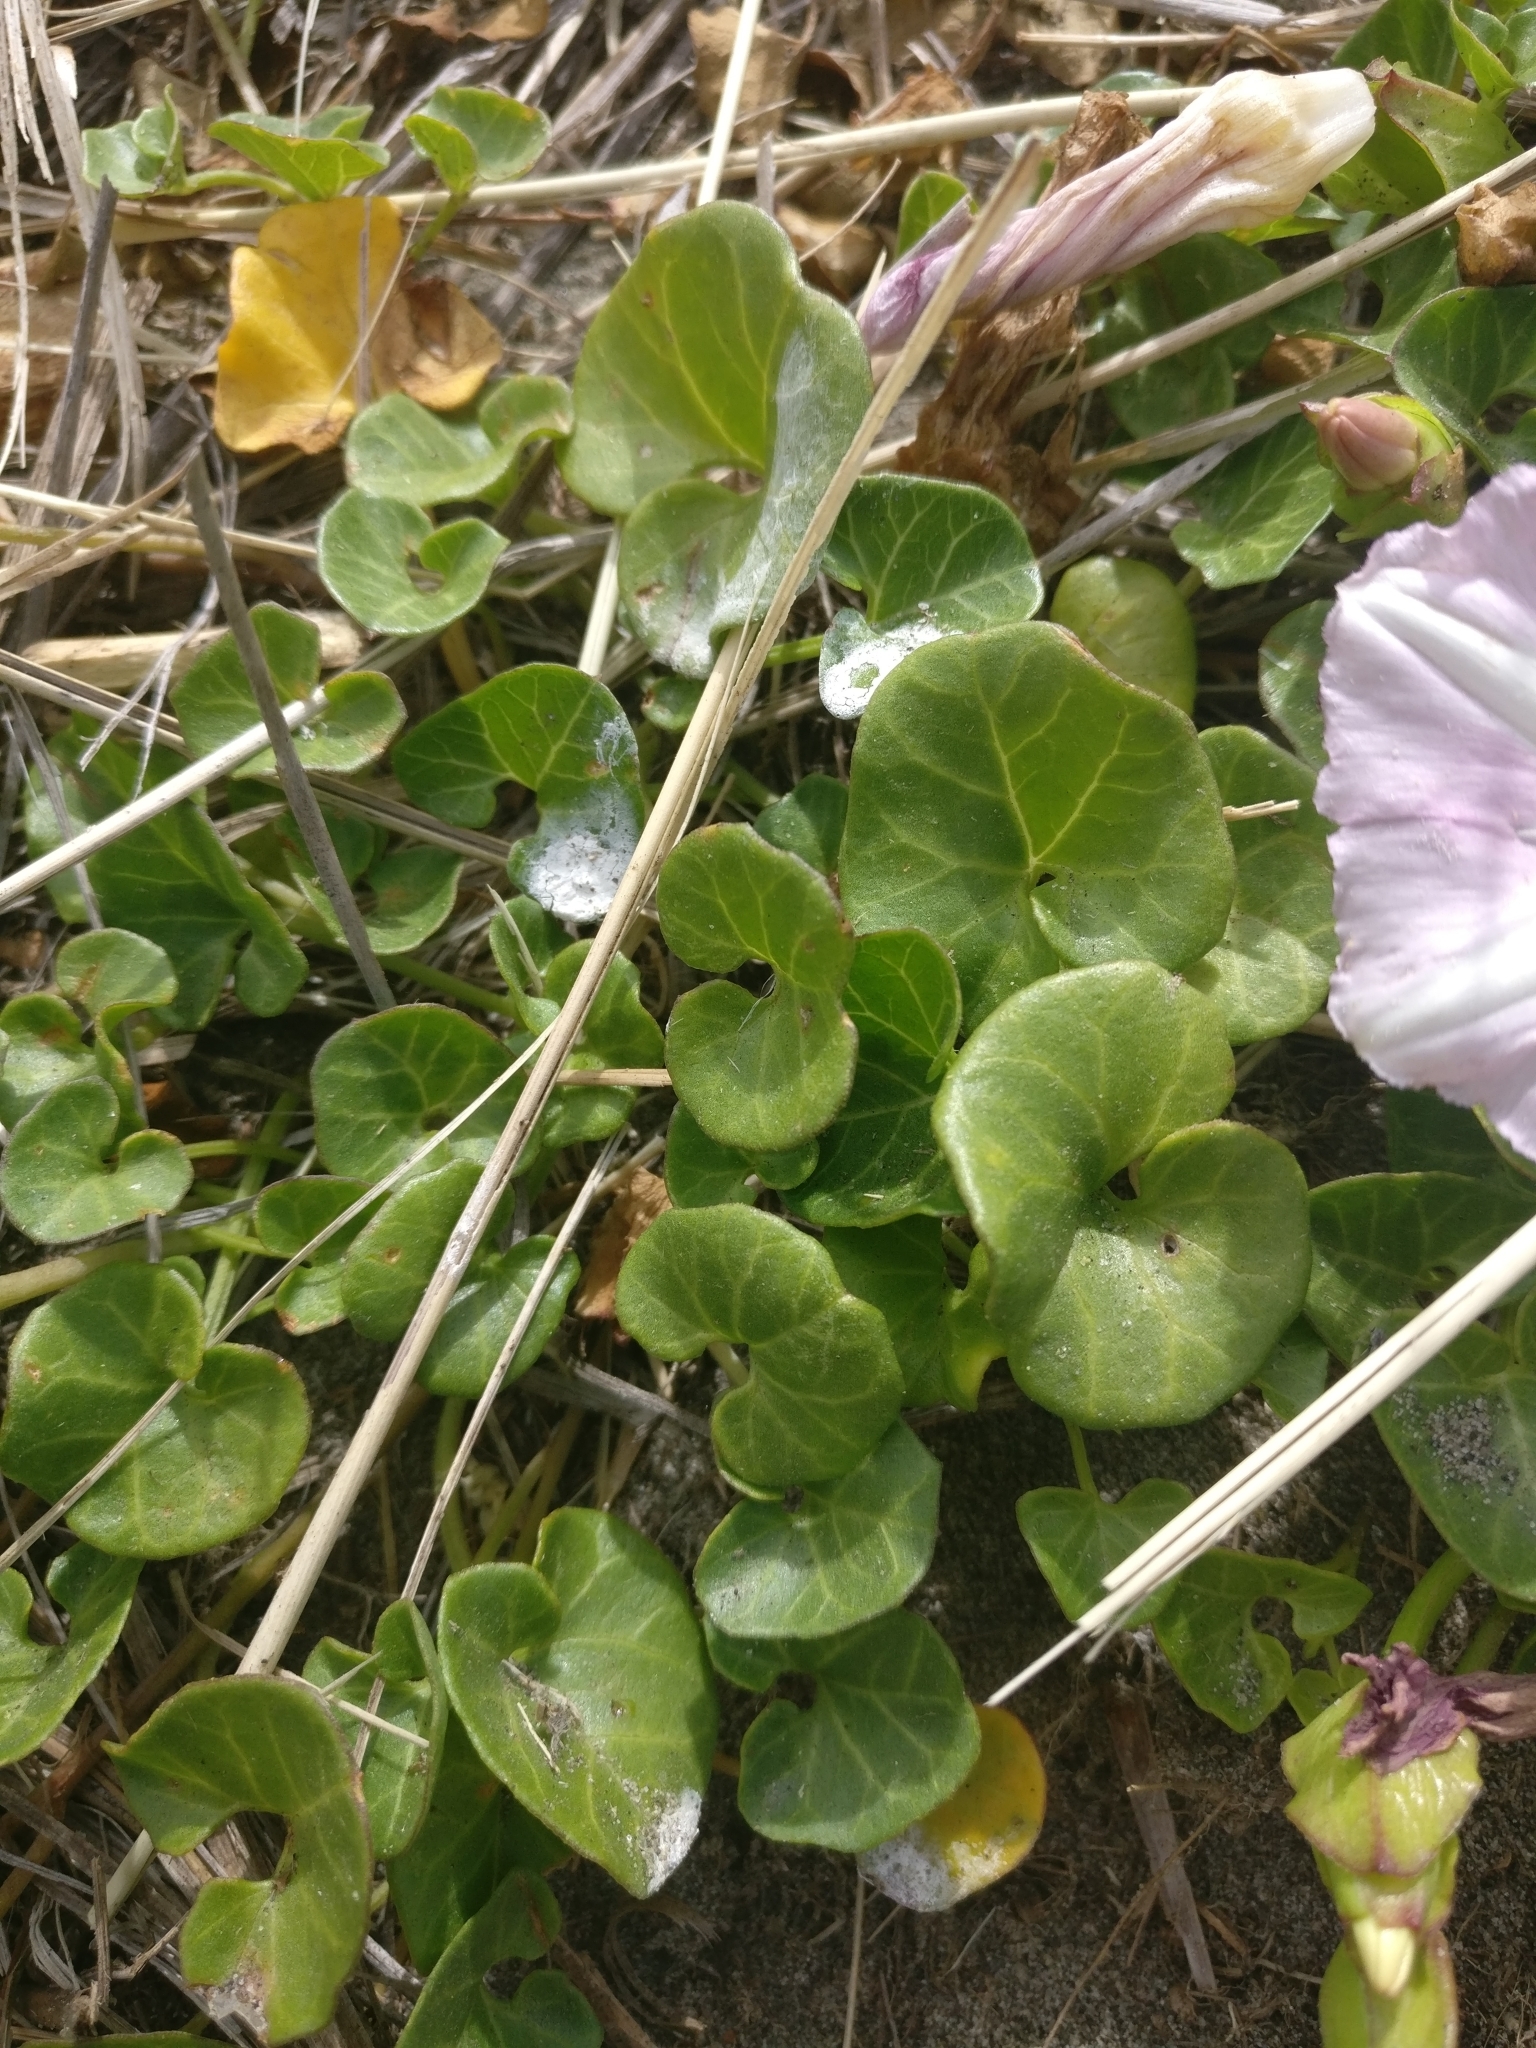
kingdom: Plantae
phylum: Tracheophyta
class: Magnoliopsida
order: Solanales
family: Convolvulaceae
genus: Calystegia
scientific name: Calystegia soldanella
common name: Sea bindweed
